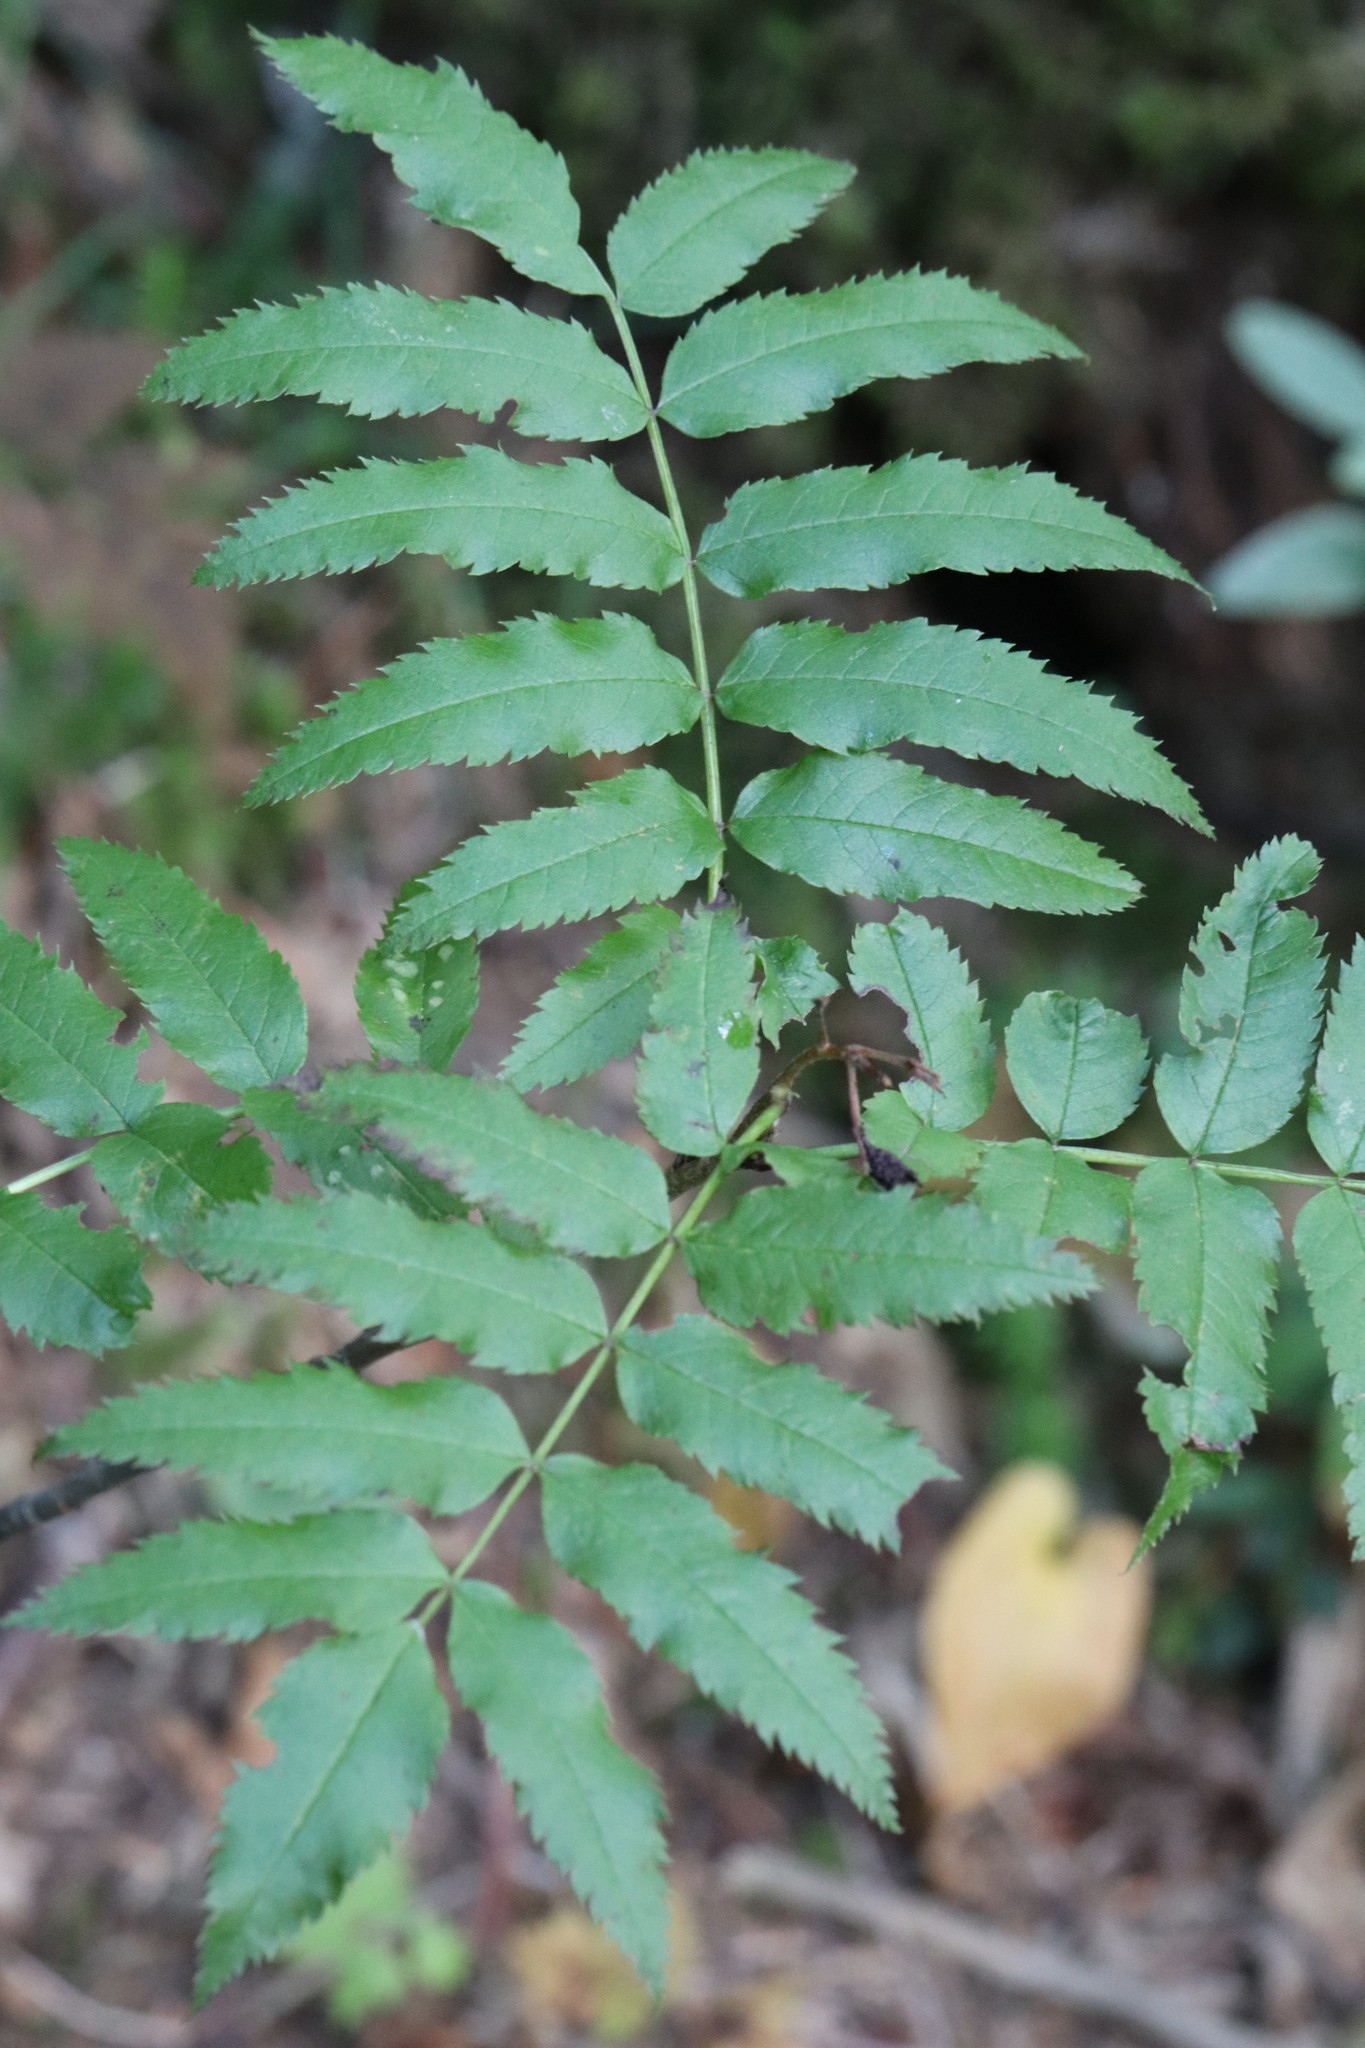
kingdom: Plantae
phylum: Tracheophyta
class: Magnoliopsida
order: Rosales
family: Rosaceae
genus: Sorbus
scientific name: Sorbus sambucifolia
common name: Siberian mountain-ash
